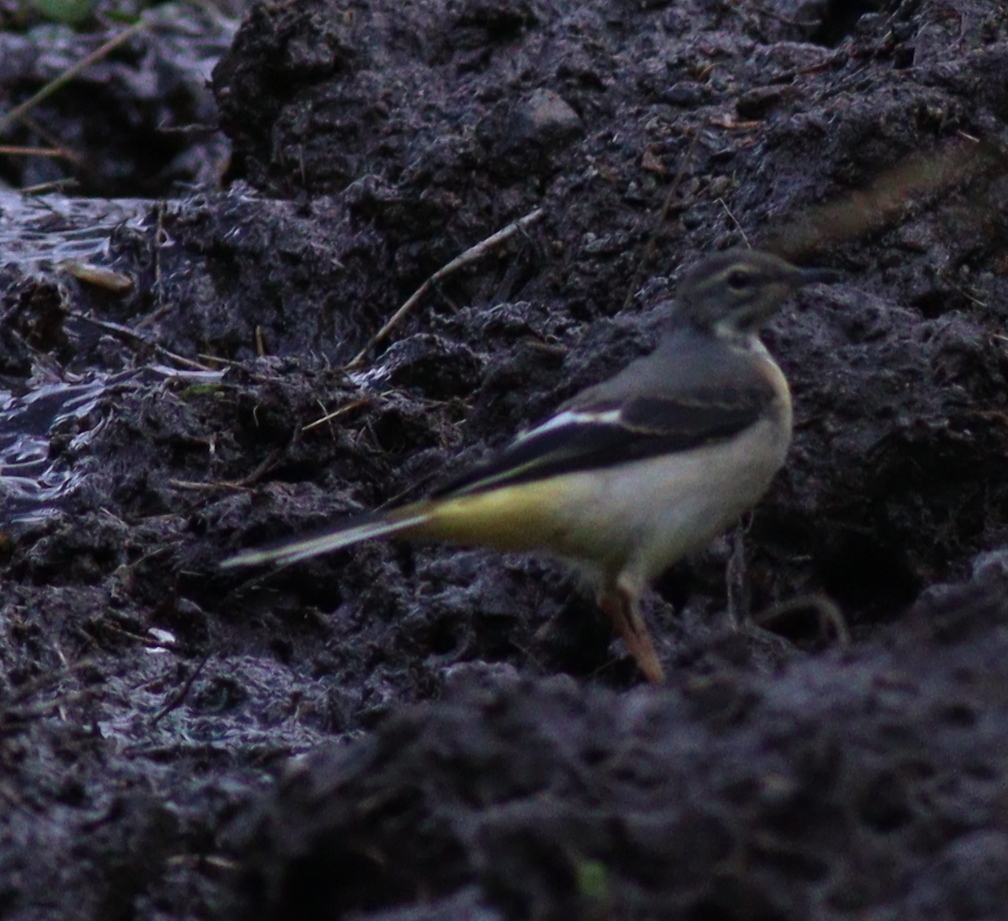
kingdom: Animalia
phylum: Chordata
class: Aves
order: Passeriformes
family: Motacillidae
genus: Motacilla
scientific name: Motacilla cinerea
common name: Grey wagtail
